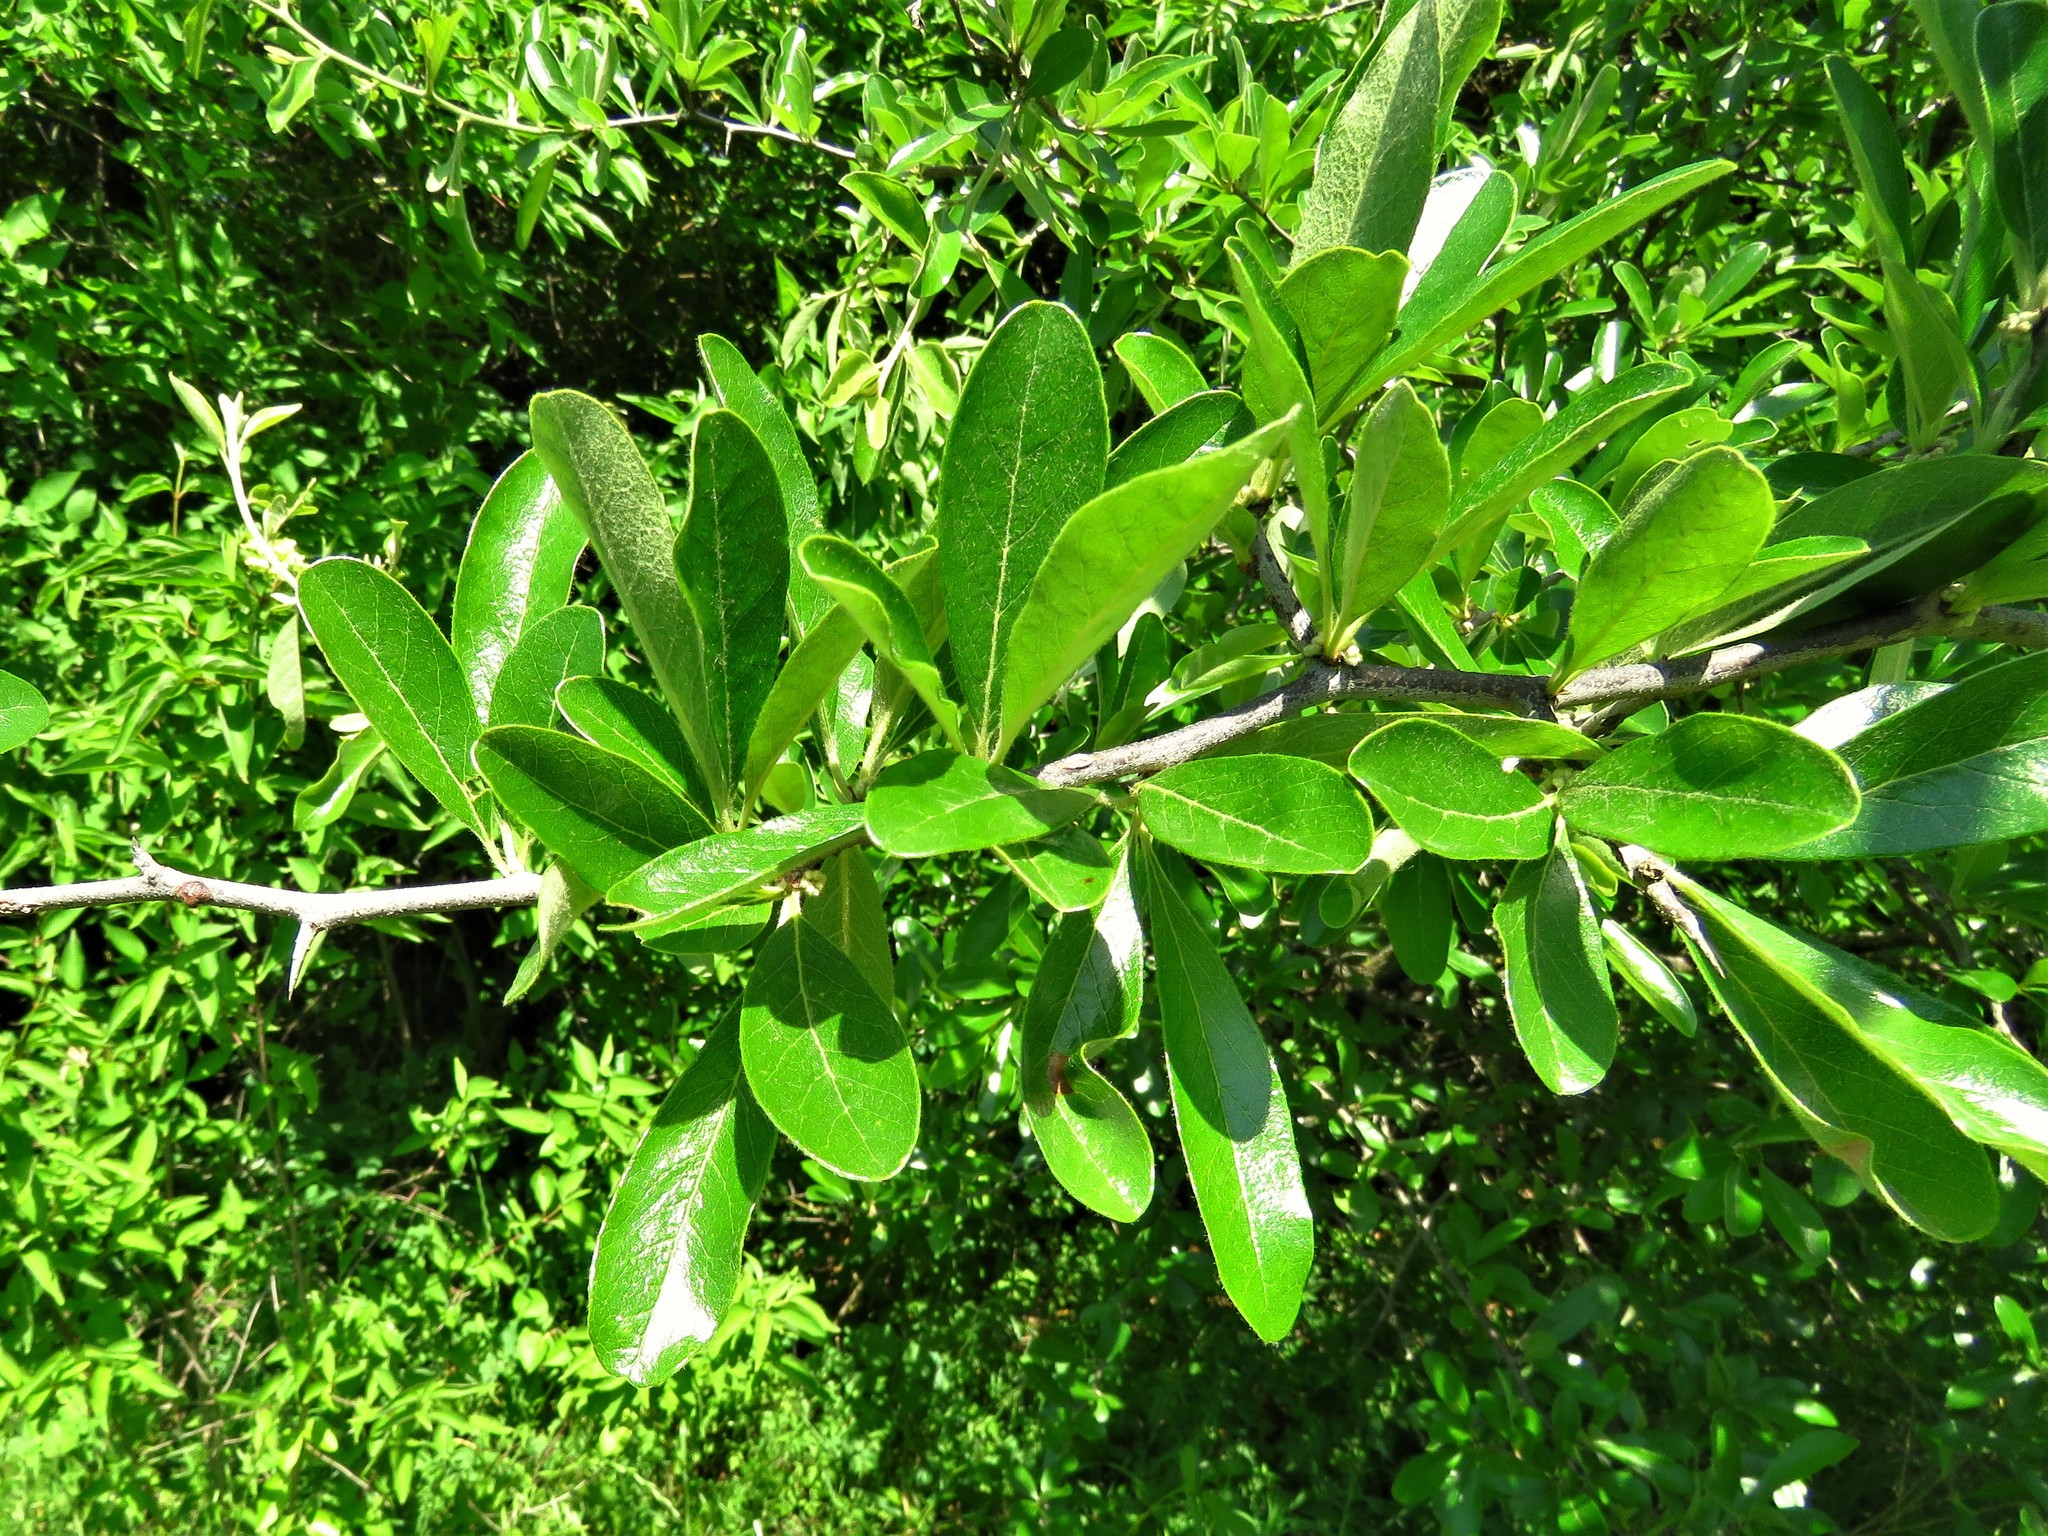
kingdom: Plantae
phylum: Tracheophyta
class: Magnoliopsida
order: Ericales
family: Sapotaceae
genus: Sideroxylon
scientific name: Sideroxylon lanuginosum
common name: Chittamwood
